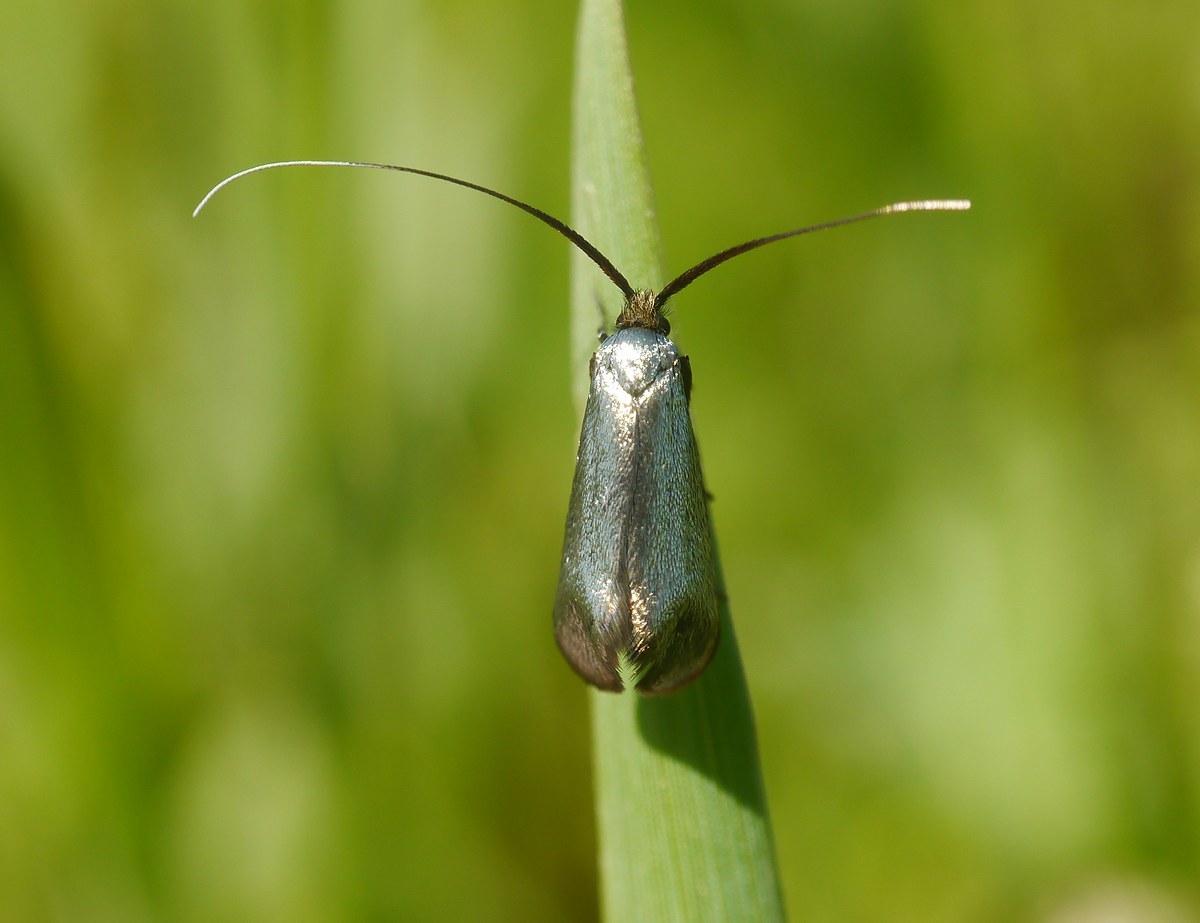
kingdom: Animalia
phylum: Arthropoda
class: Insecta
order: Lepidoptera
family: Adelidae
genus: Adela
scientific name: Adela viridella
